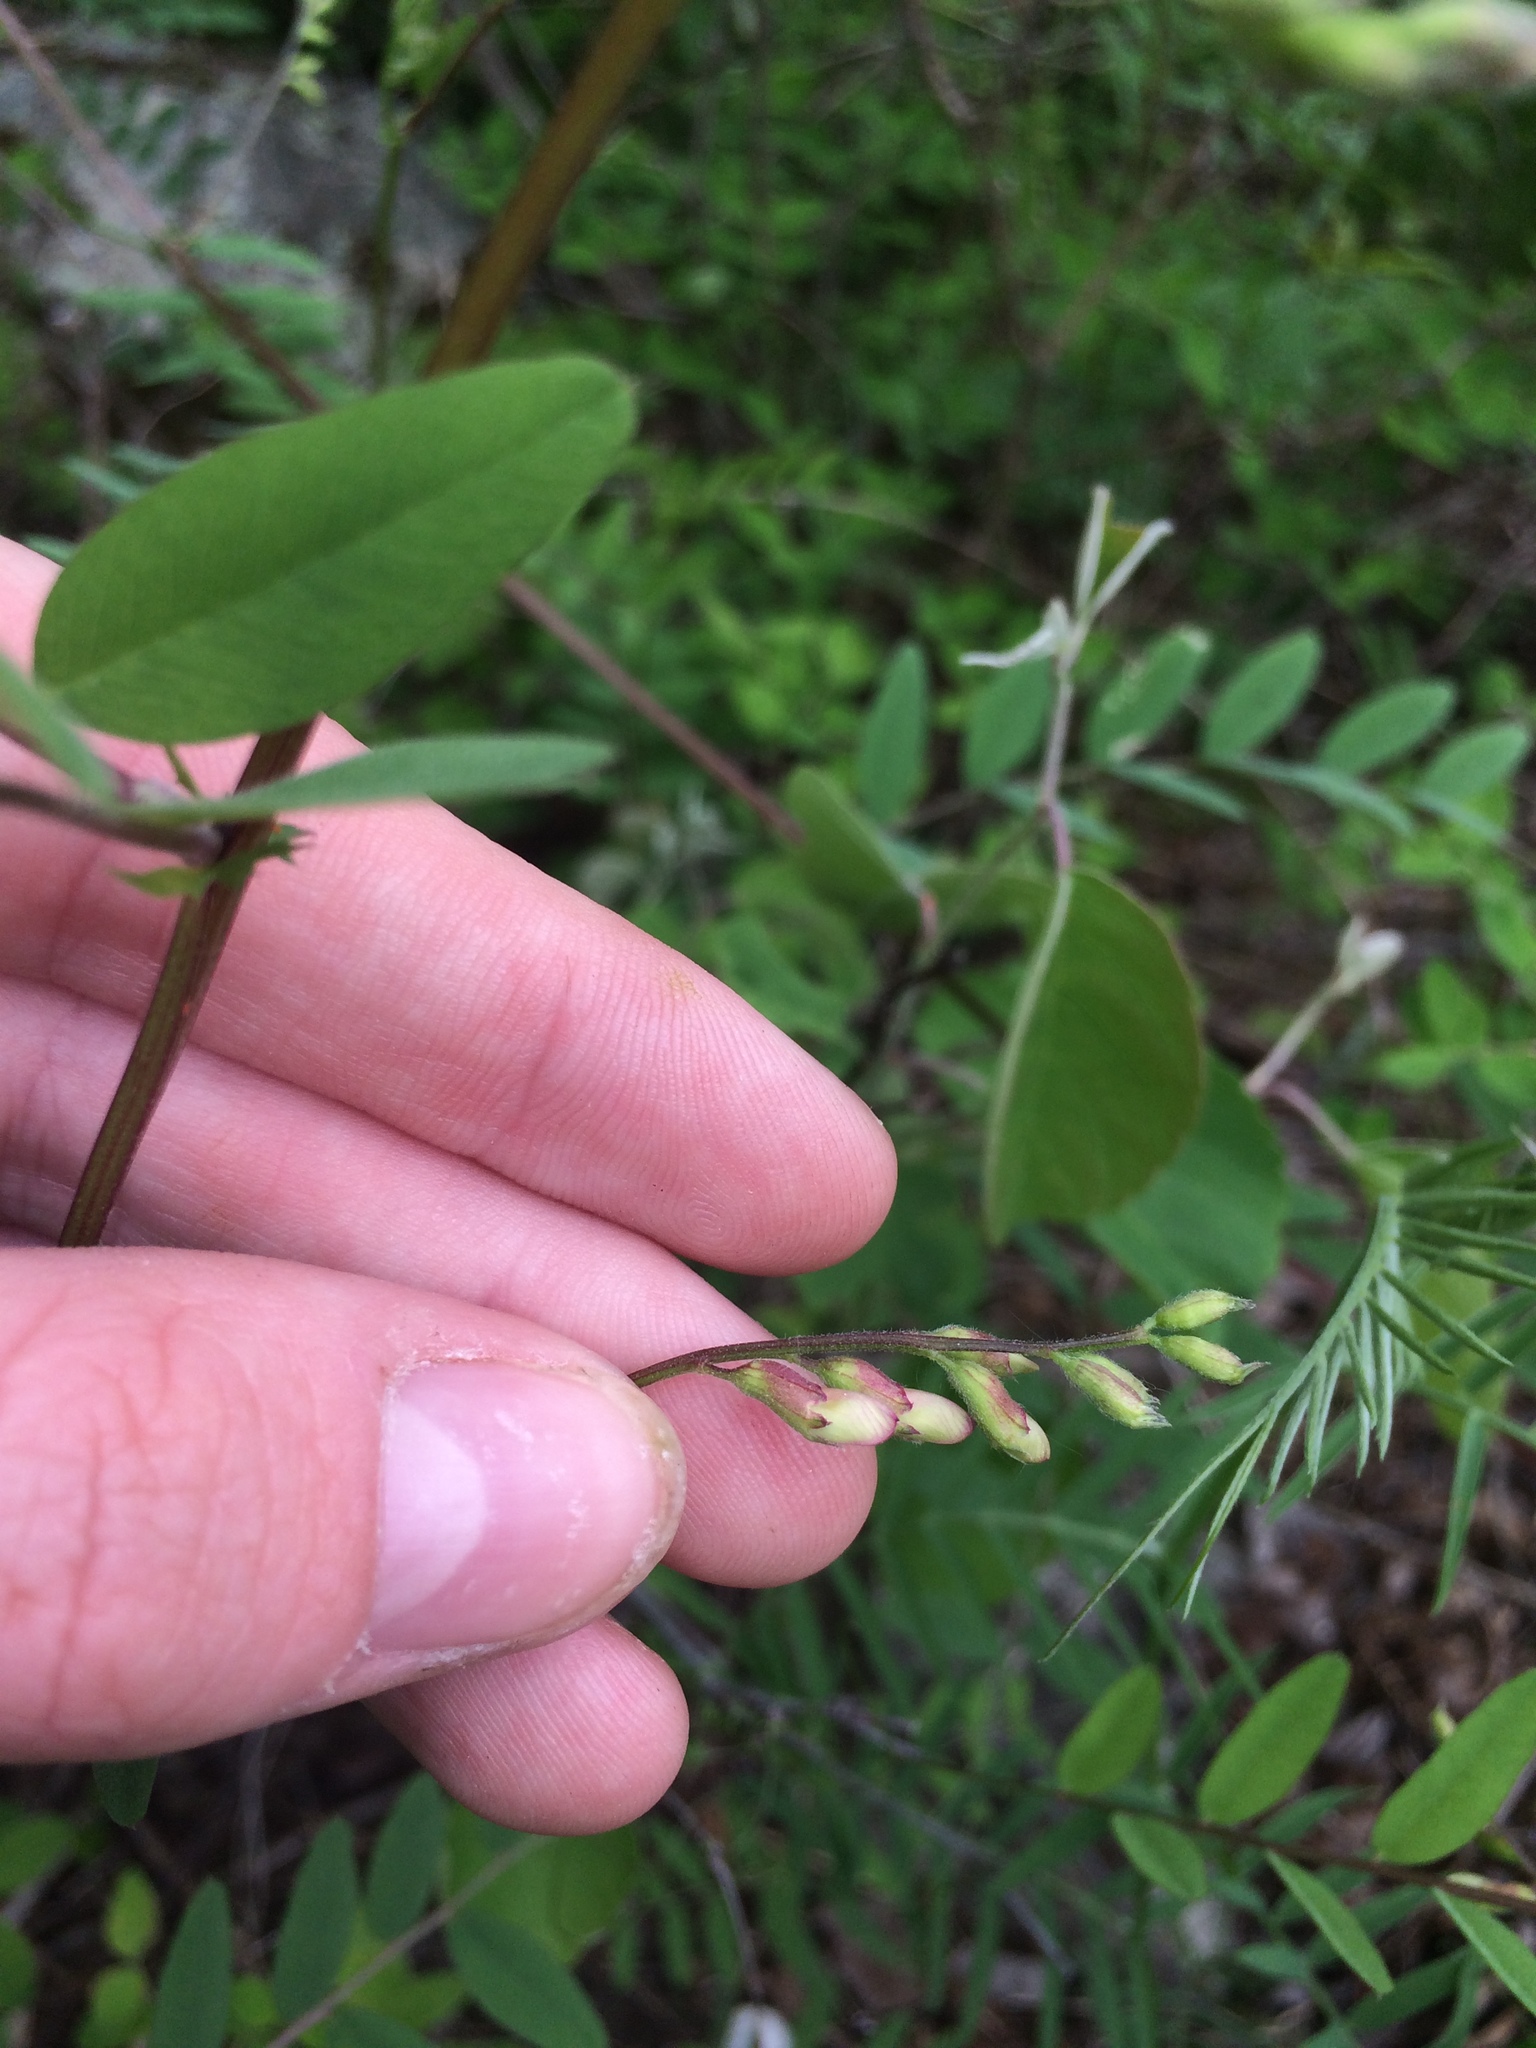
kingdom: Plantae
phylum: Tracheophyta
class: Magnoliopsida
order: Fabales
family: Fabaceae
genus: Vicia
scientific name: Vicia americana
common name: American vetch
